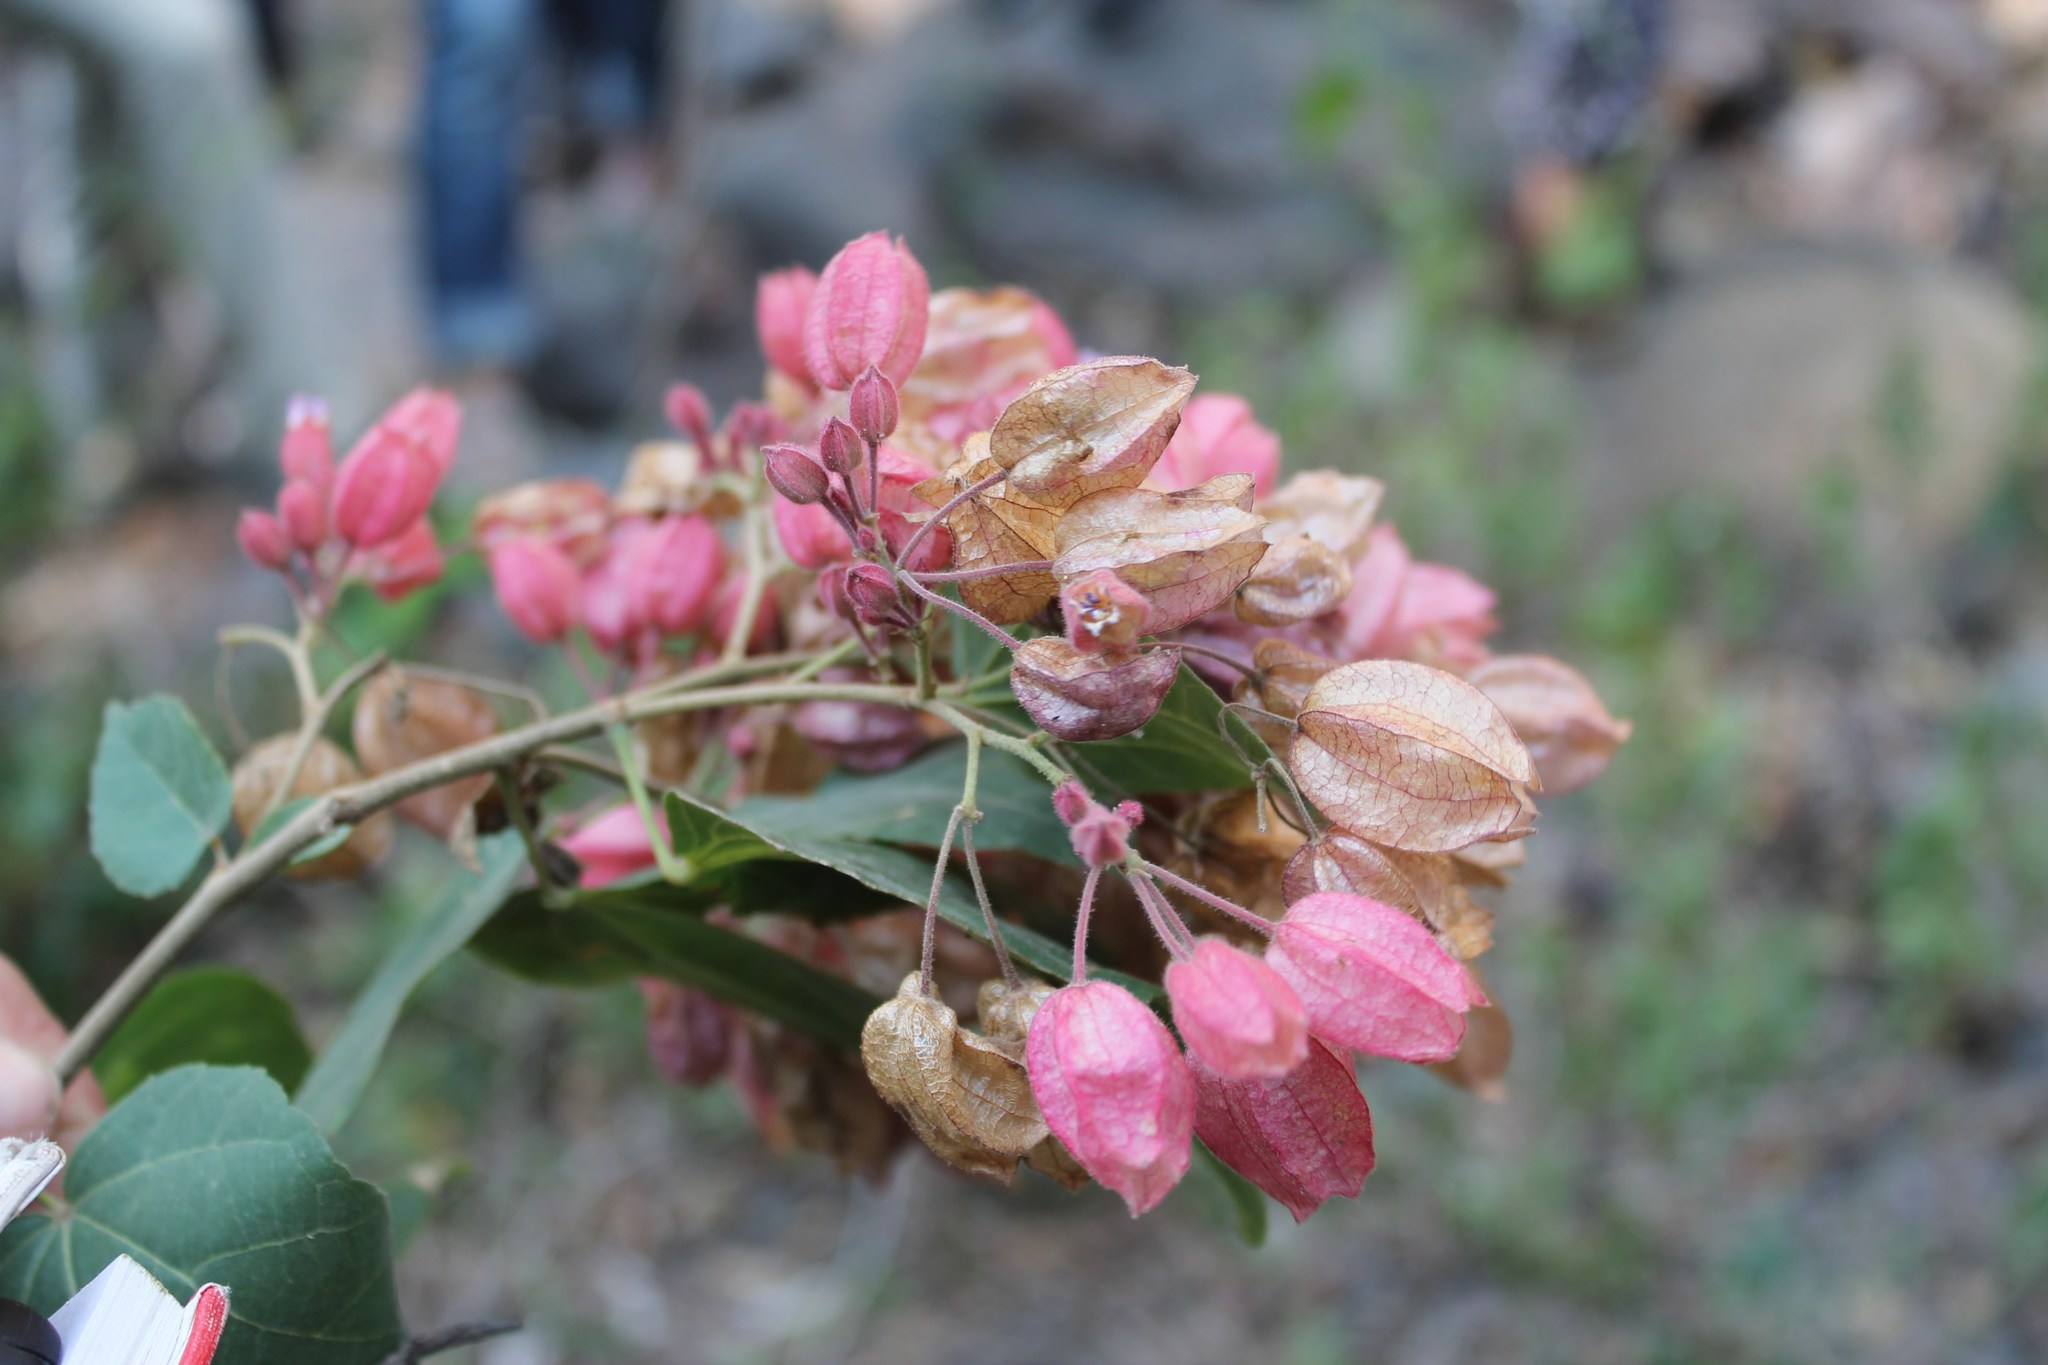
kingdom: Plantae
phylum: Tracheophyta
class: Magnoliopsida
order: Malvales
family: Malvaceae
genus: Physodium
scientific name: Physodium adenodes
